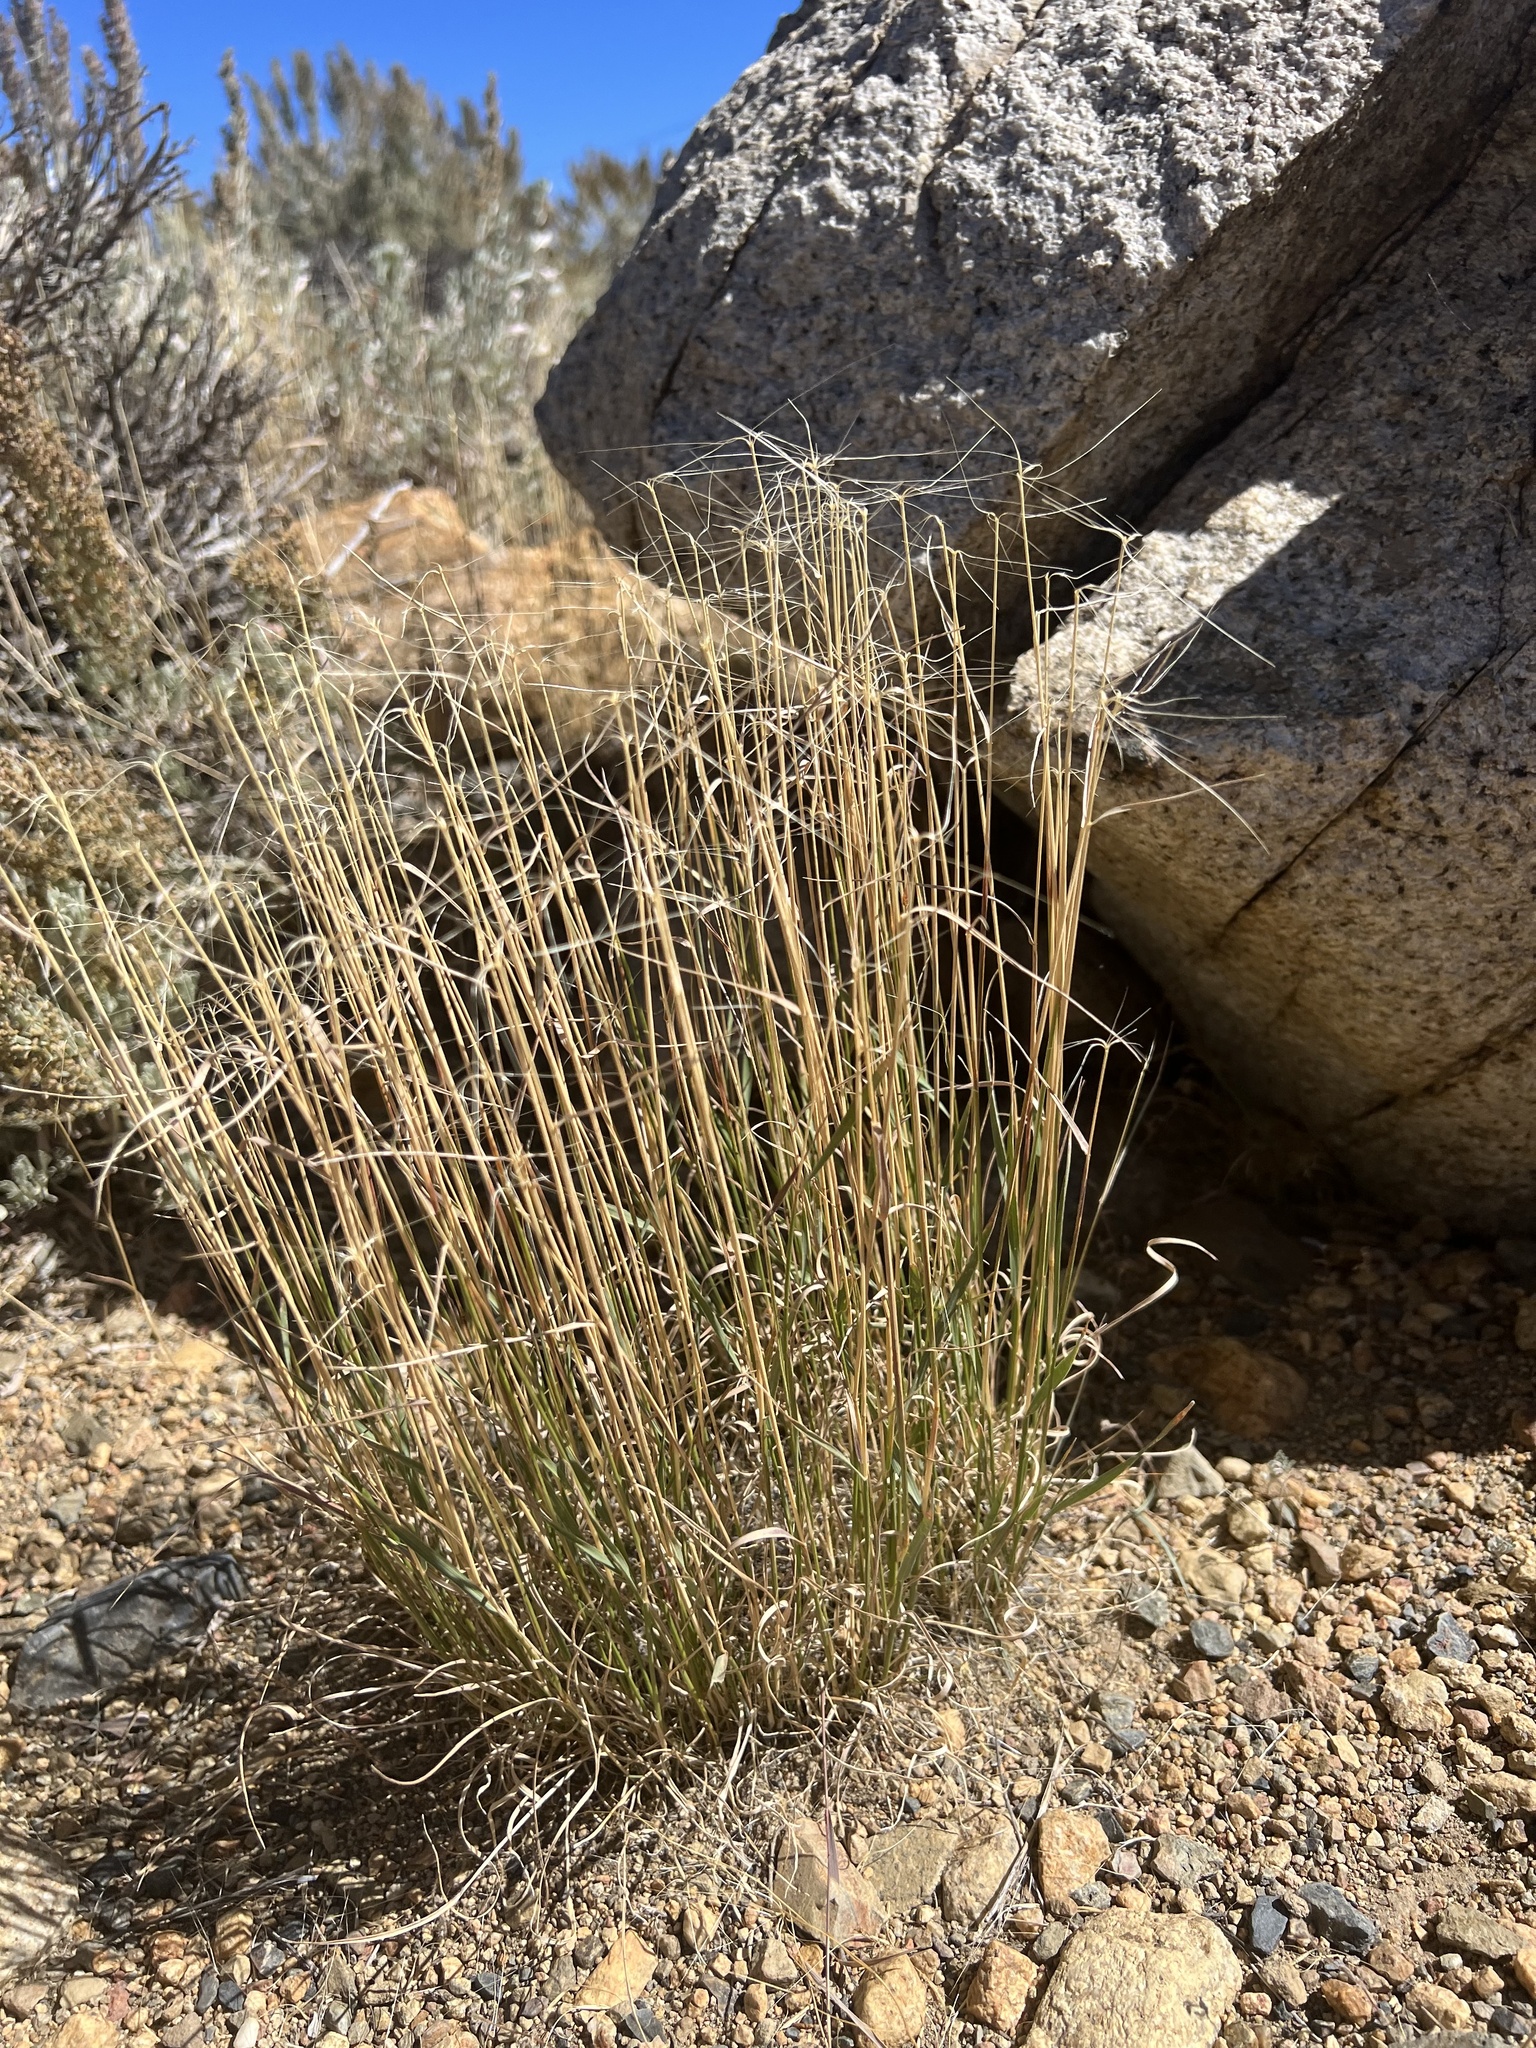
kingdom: Plantae
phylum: Tracheophyta
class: Liliopsida
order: Poales
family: Poaceae
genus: Elymus
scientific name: Elymus elymoides
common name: Bottlebrush squirreltail
